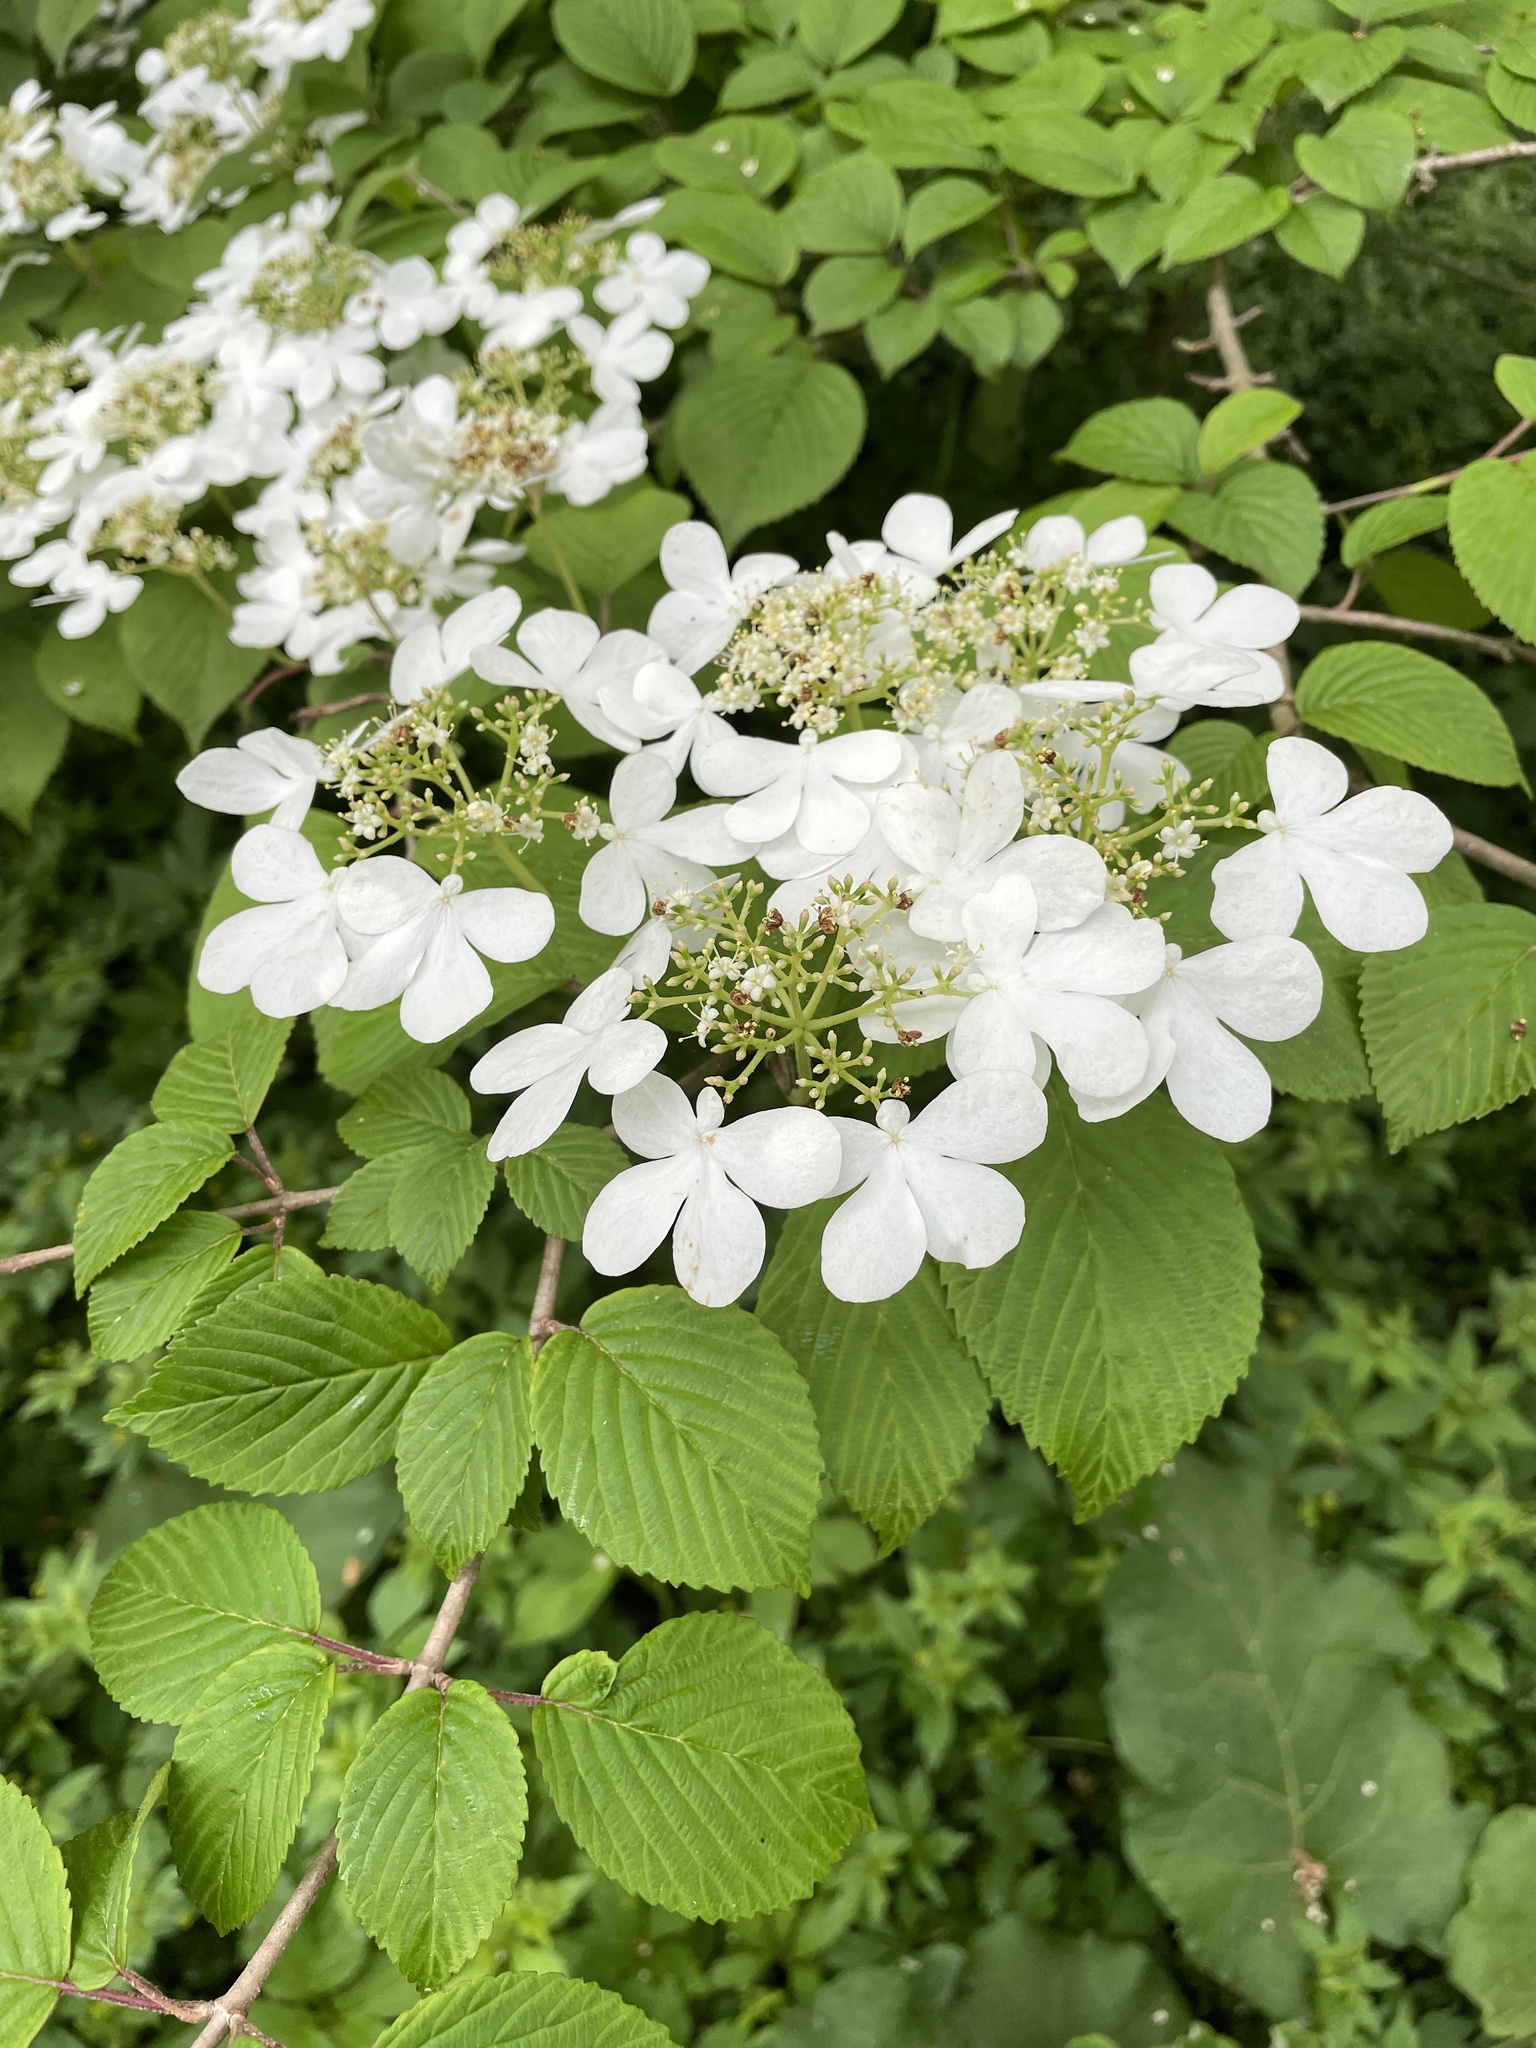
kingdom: Plantae
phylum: Tracheophyta
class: Magnoliopsida
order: Dipsacales
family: Viburnaceae
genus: Viburnum
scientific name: Viburnum plicatum
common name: Japanese snowball
